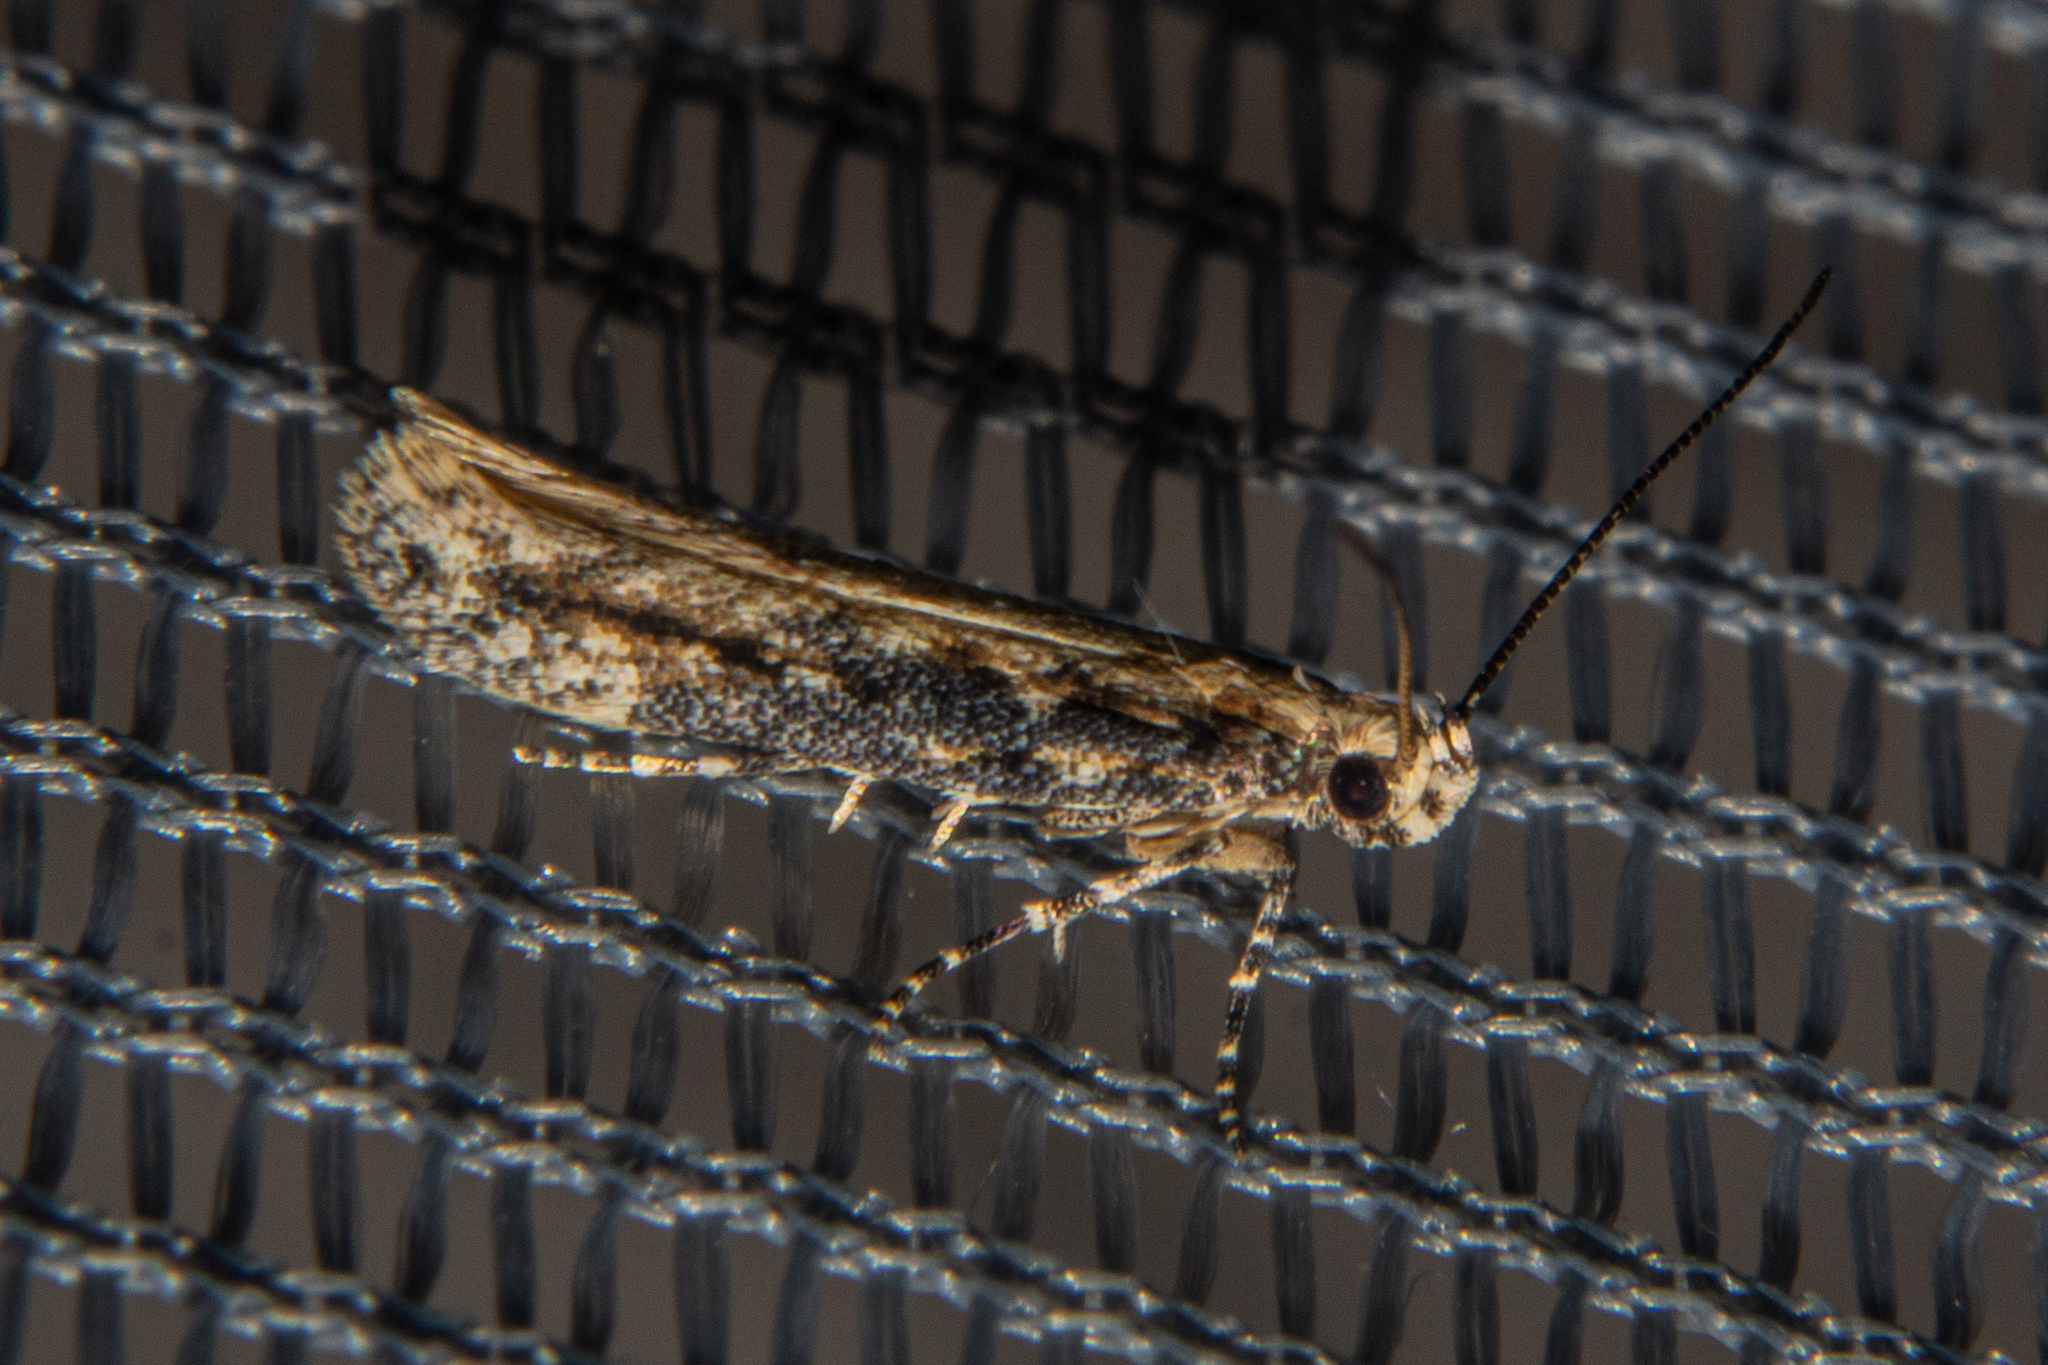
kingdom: Animalia
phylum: Arthropoda
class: Insecta
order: Lepidoptera
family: Gelechiidae
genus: Kiwaia
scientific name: Kiwaia brontophora
